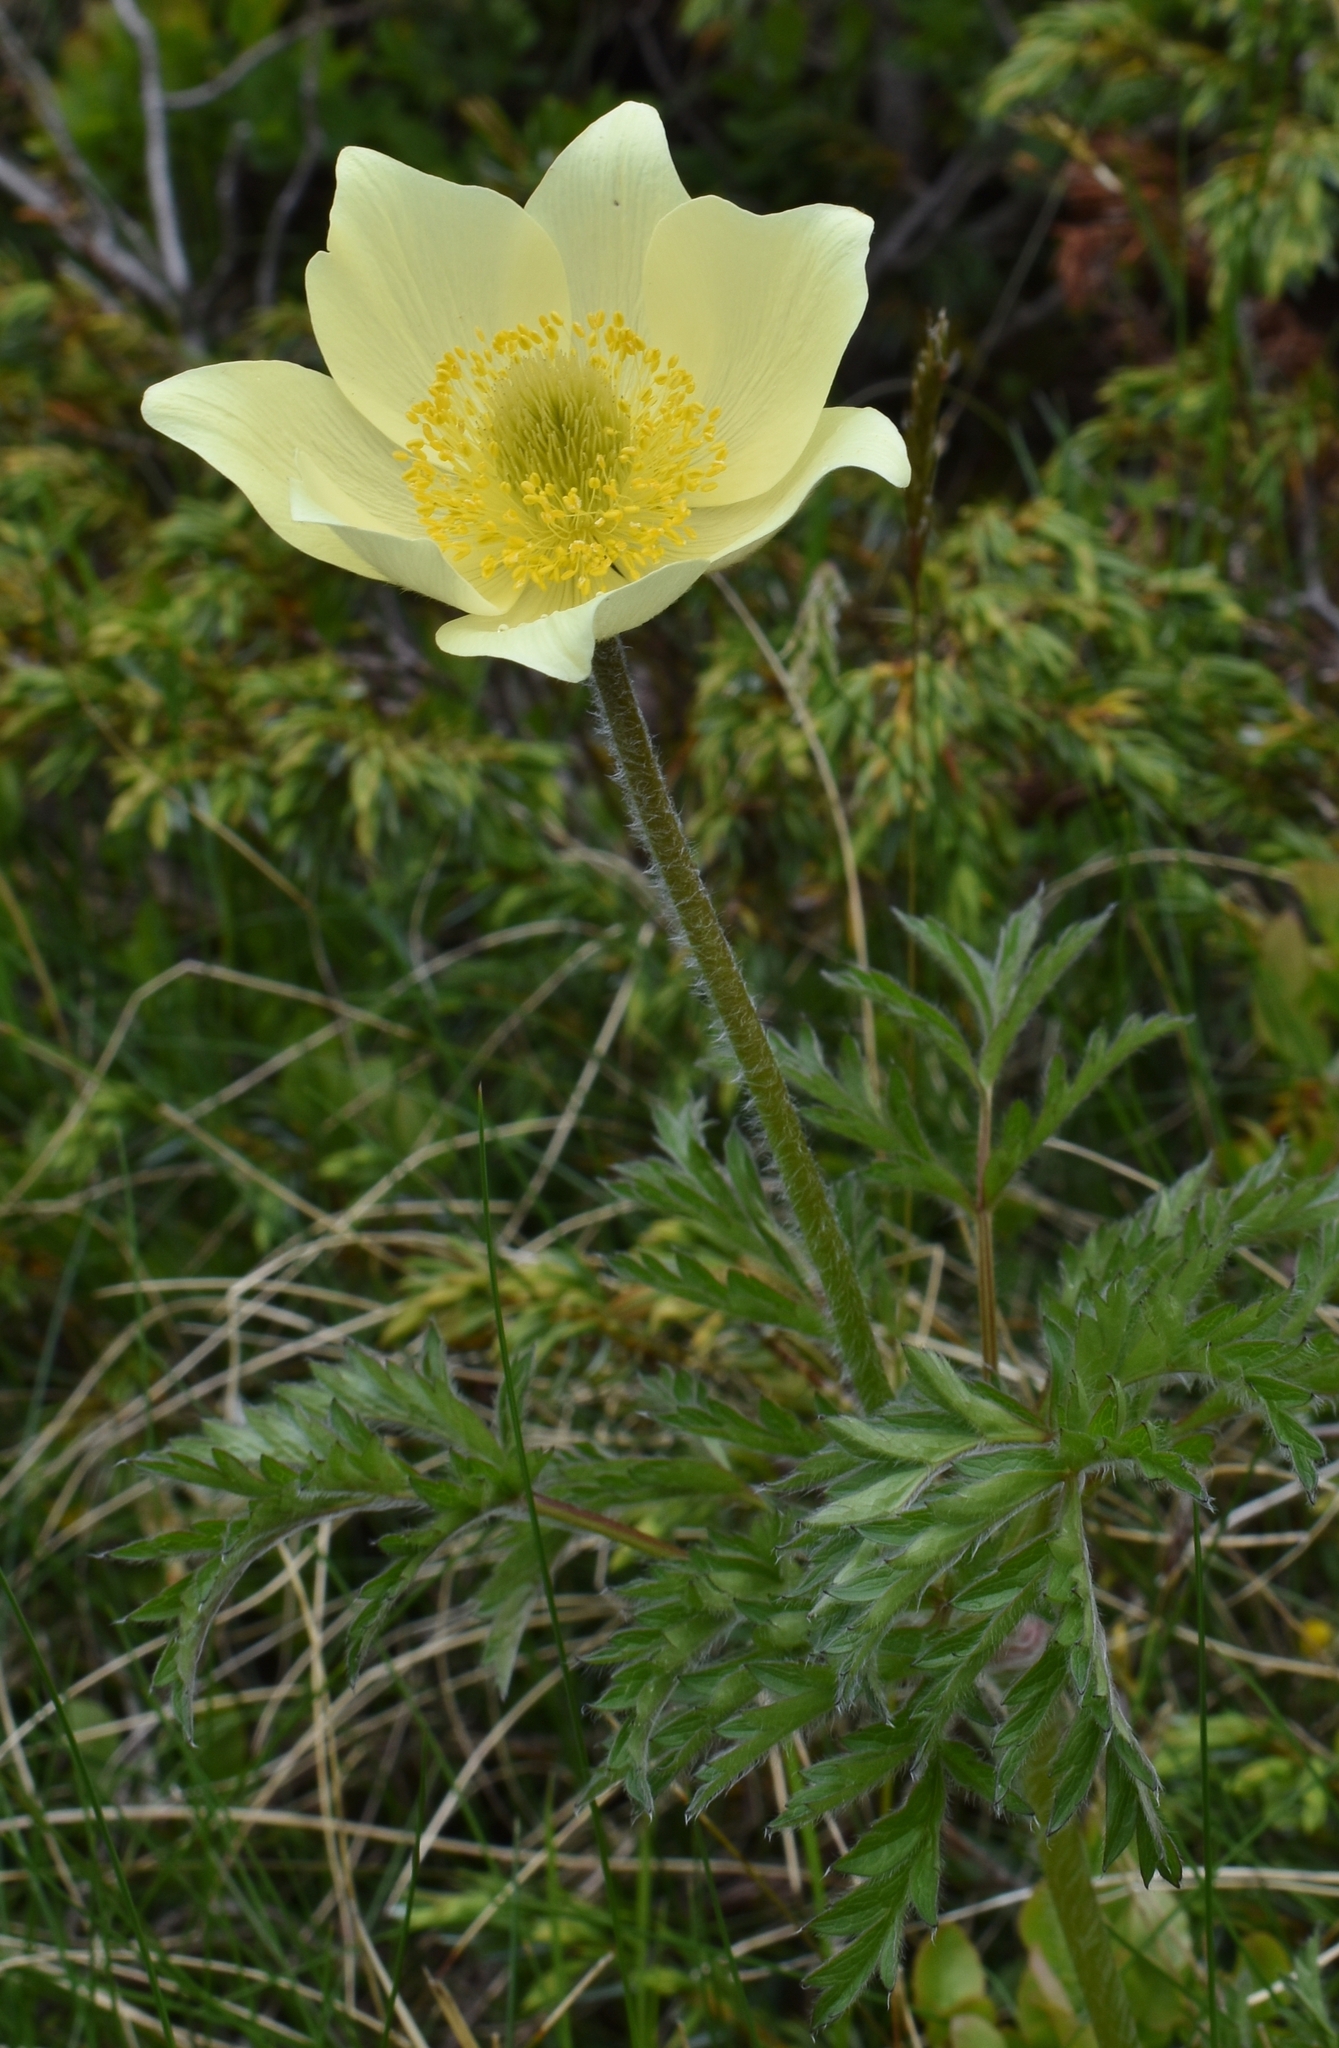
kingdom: Plantae
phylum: Tracheophyta
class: Magnoliopsida
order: Ranunculales
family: Ranunculaceae
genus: Pulsatilla
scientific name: Pulsatilla alpina
